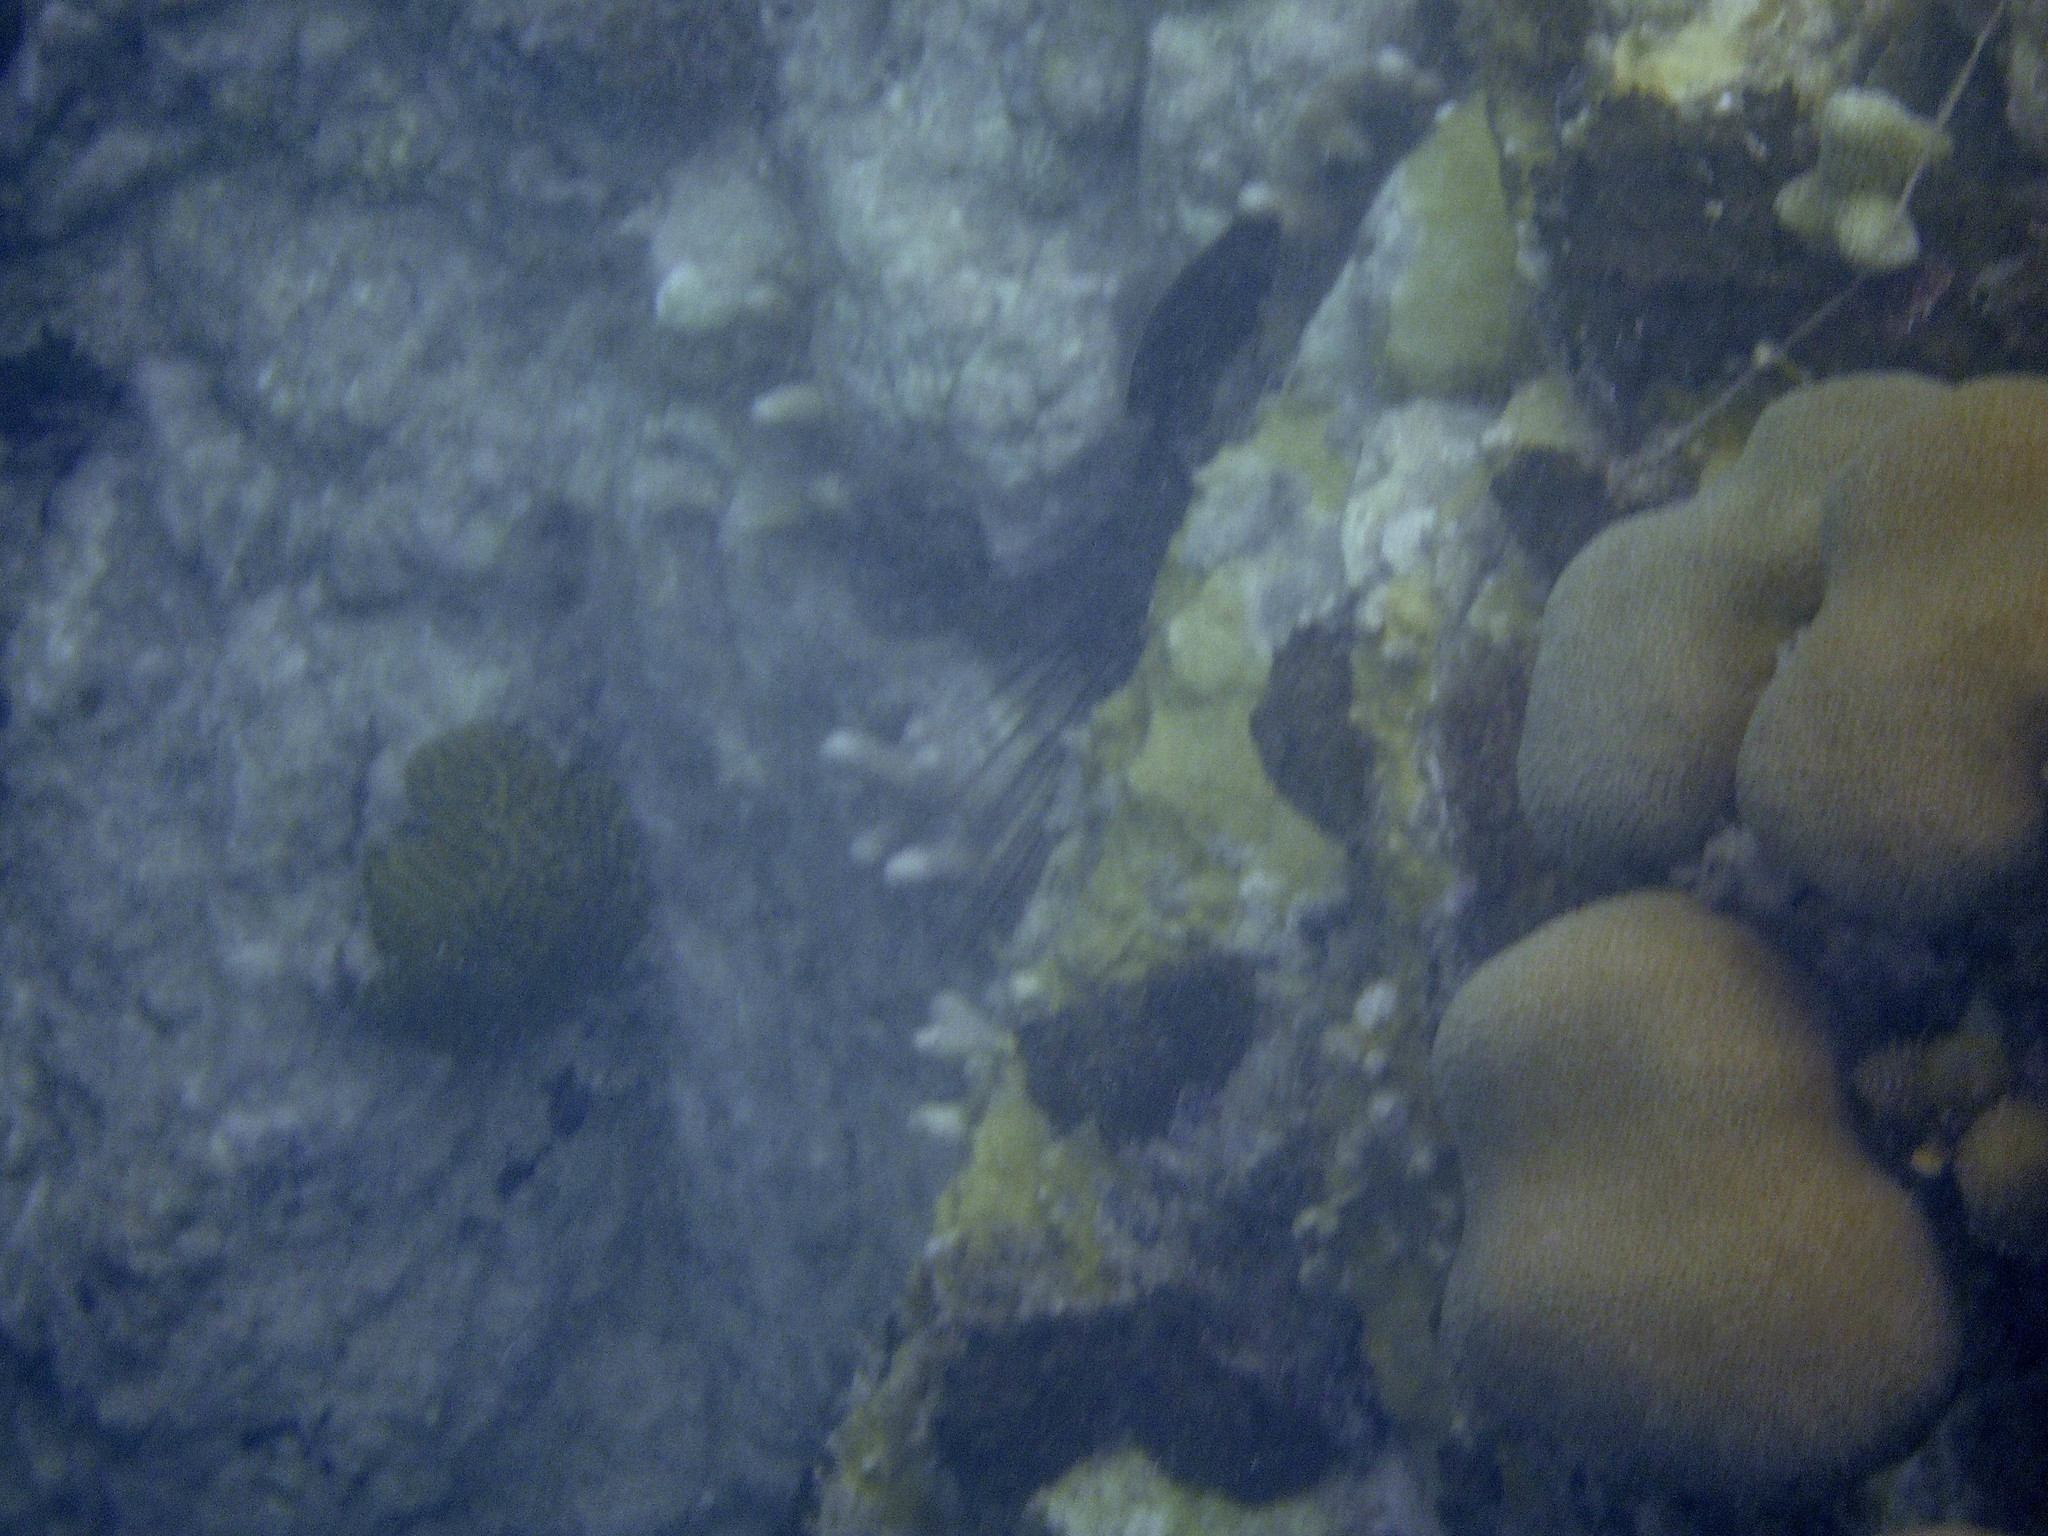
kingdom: Animalia
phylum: Cnidaria
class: Anthozoa
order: Scleractinia
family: Merulinidae
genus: Orbicella
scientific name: Orbicella annularis
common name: Boulder star coral
